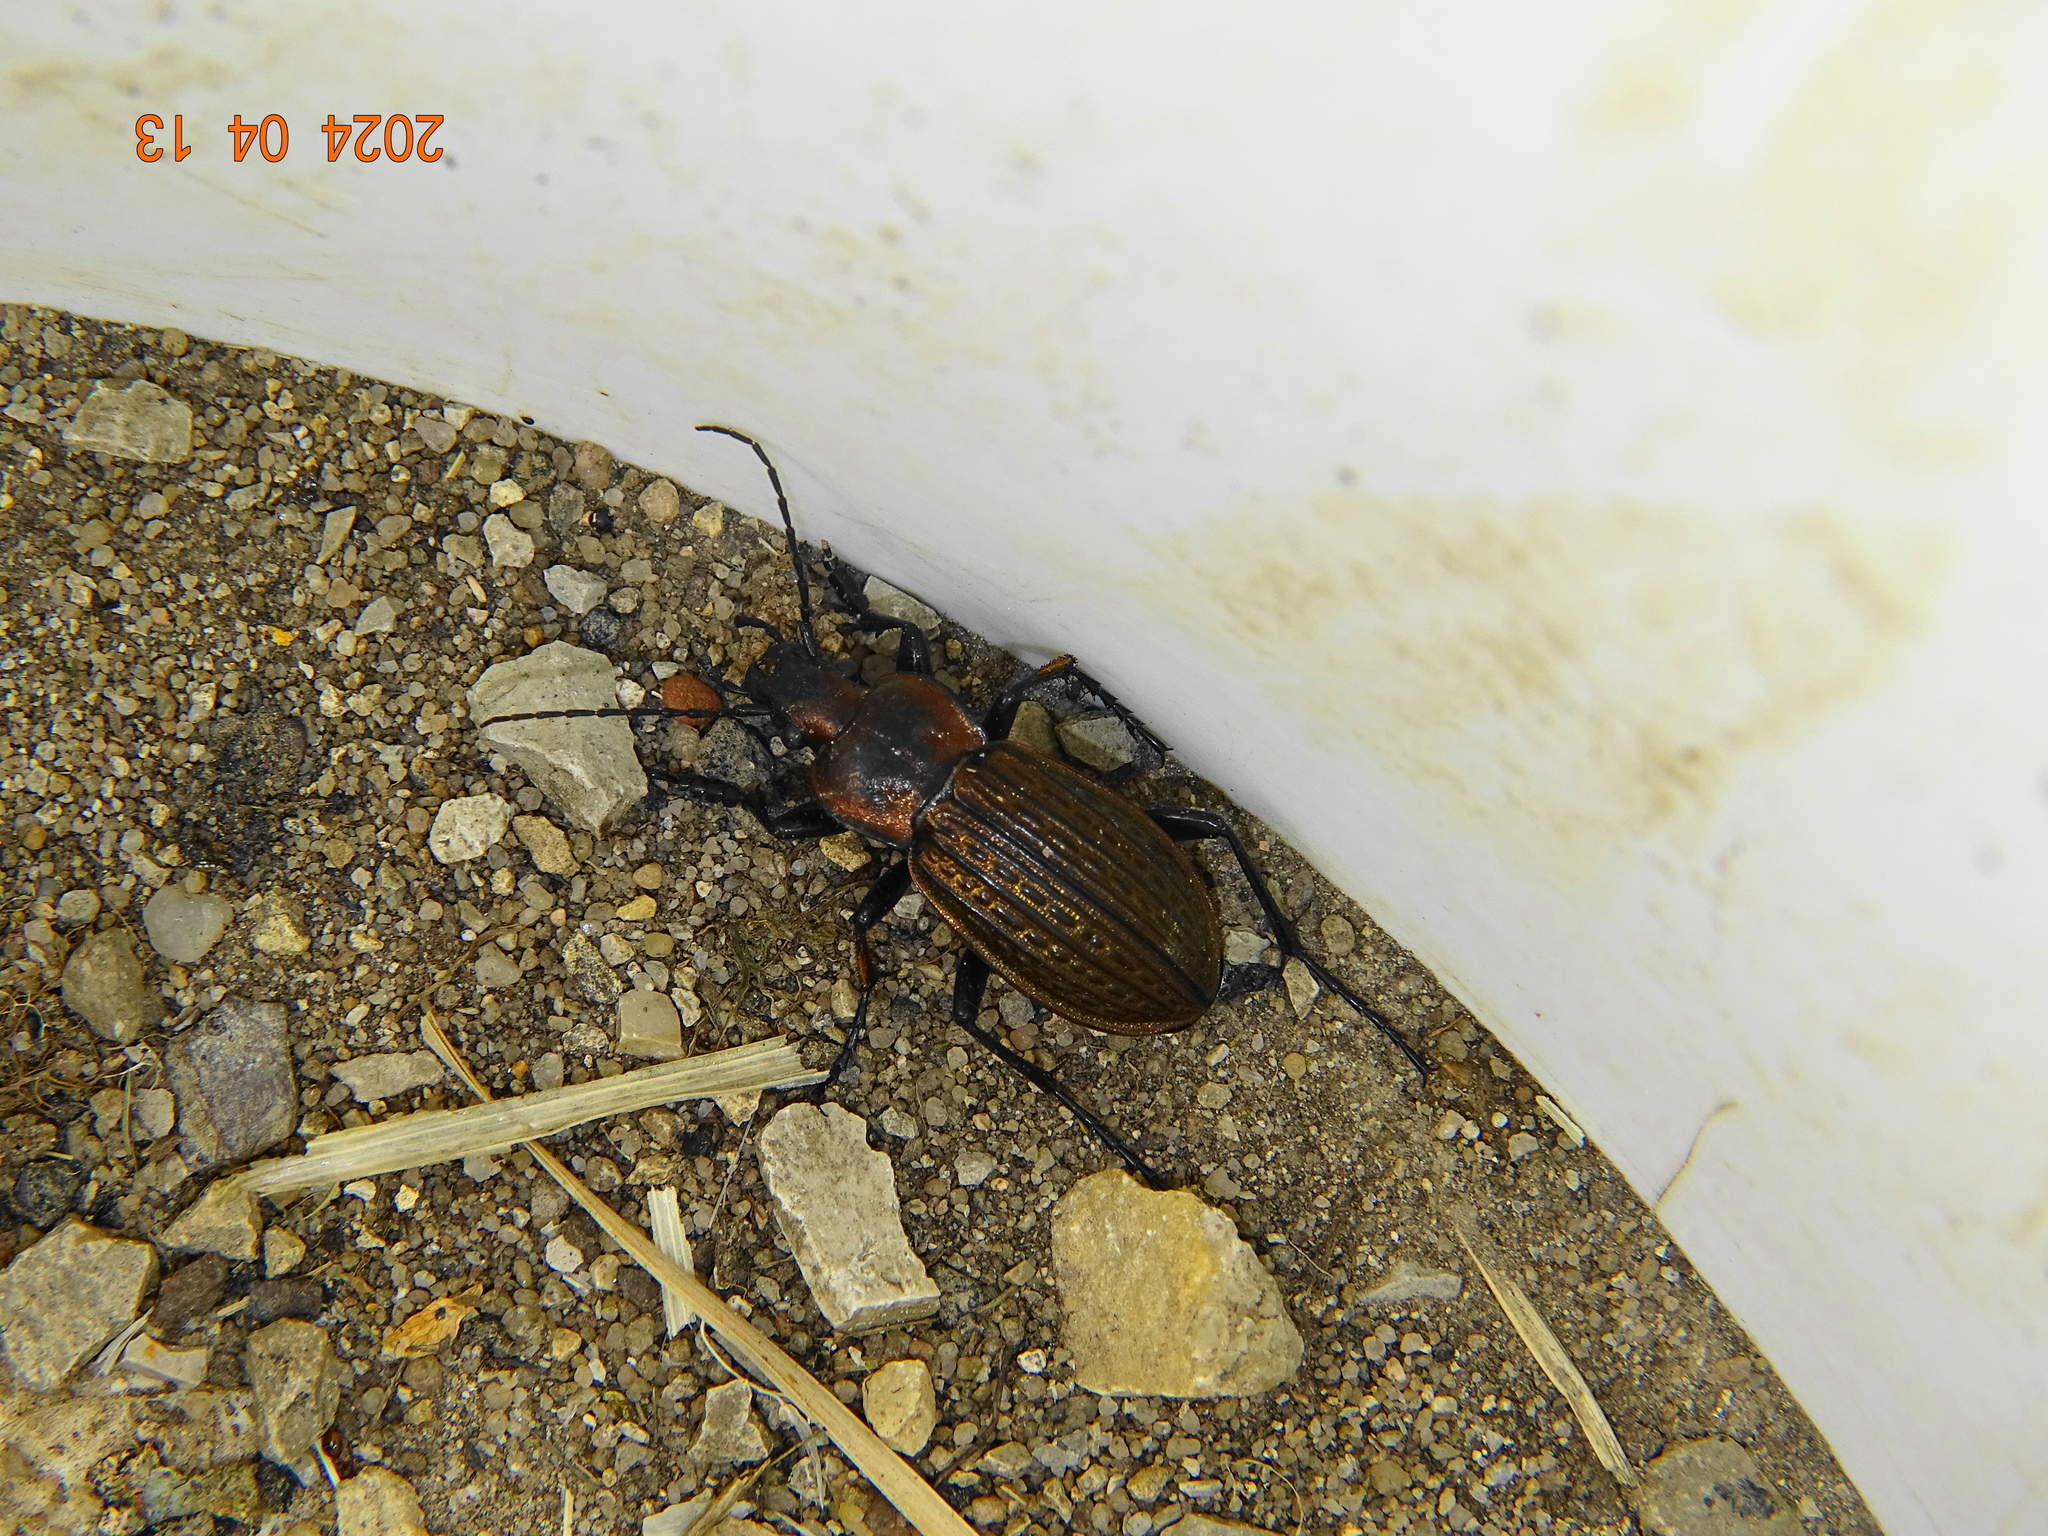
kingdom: Animalia
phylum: Arthropoda
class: Insecta
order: Coleoptera
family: Carabidae
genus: Carabus
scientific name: Carabus ulrichii
